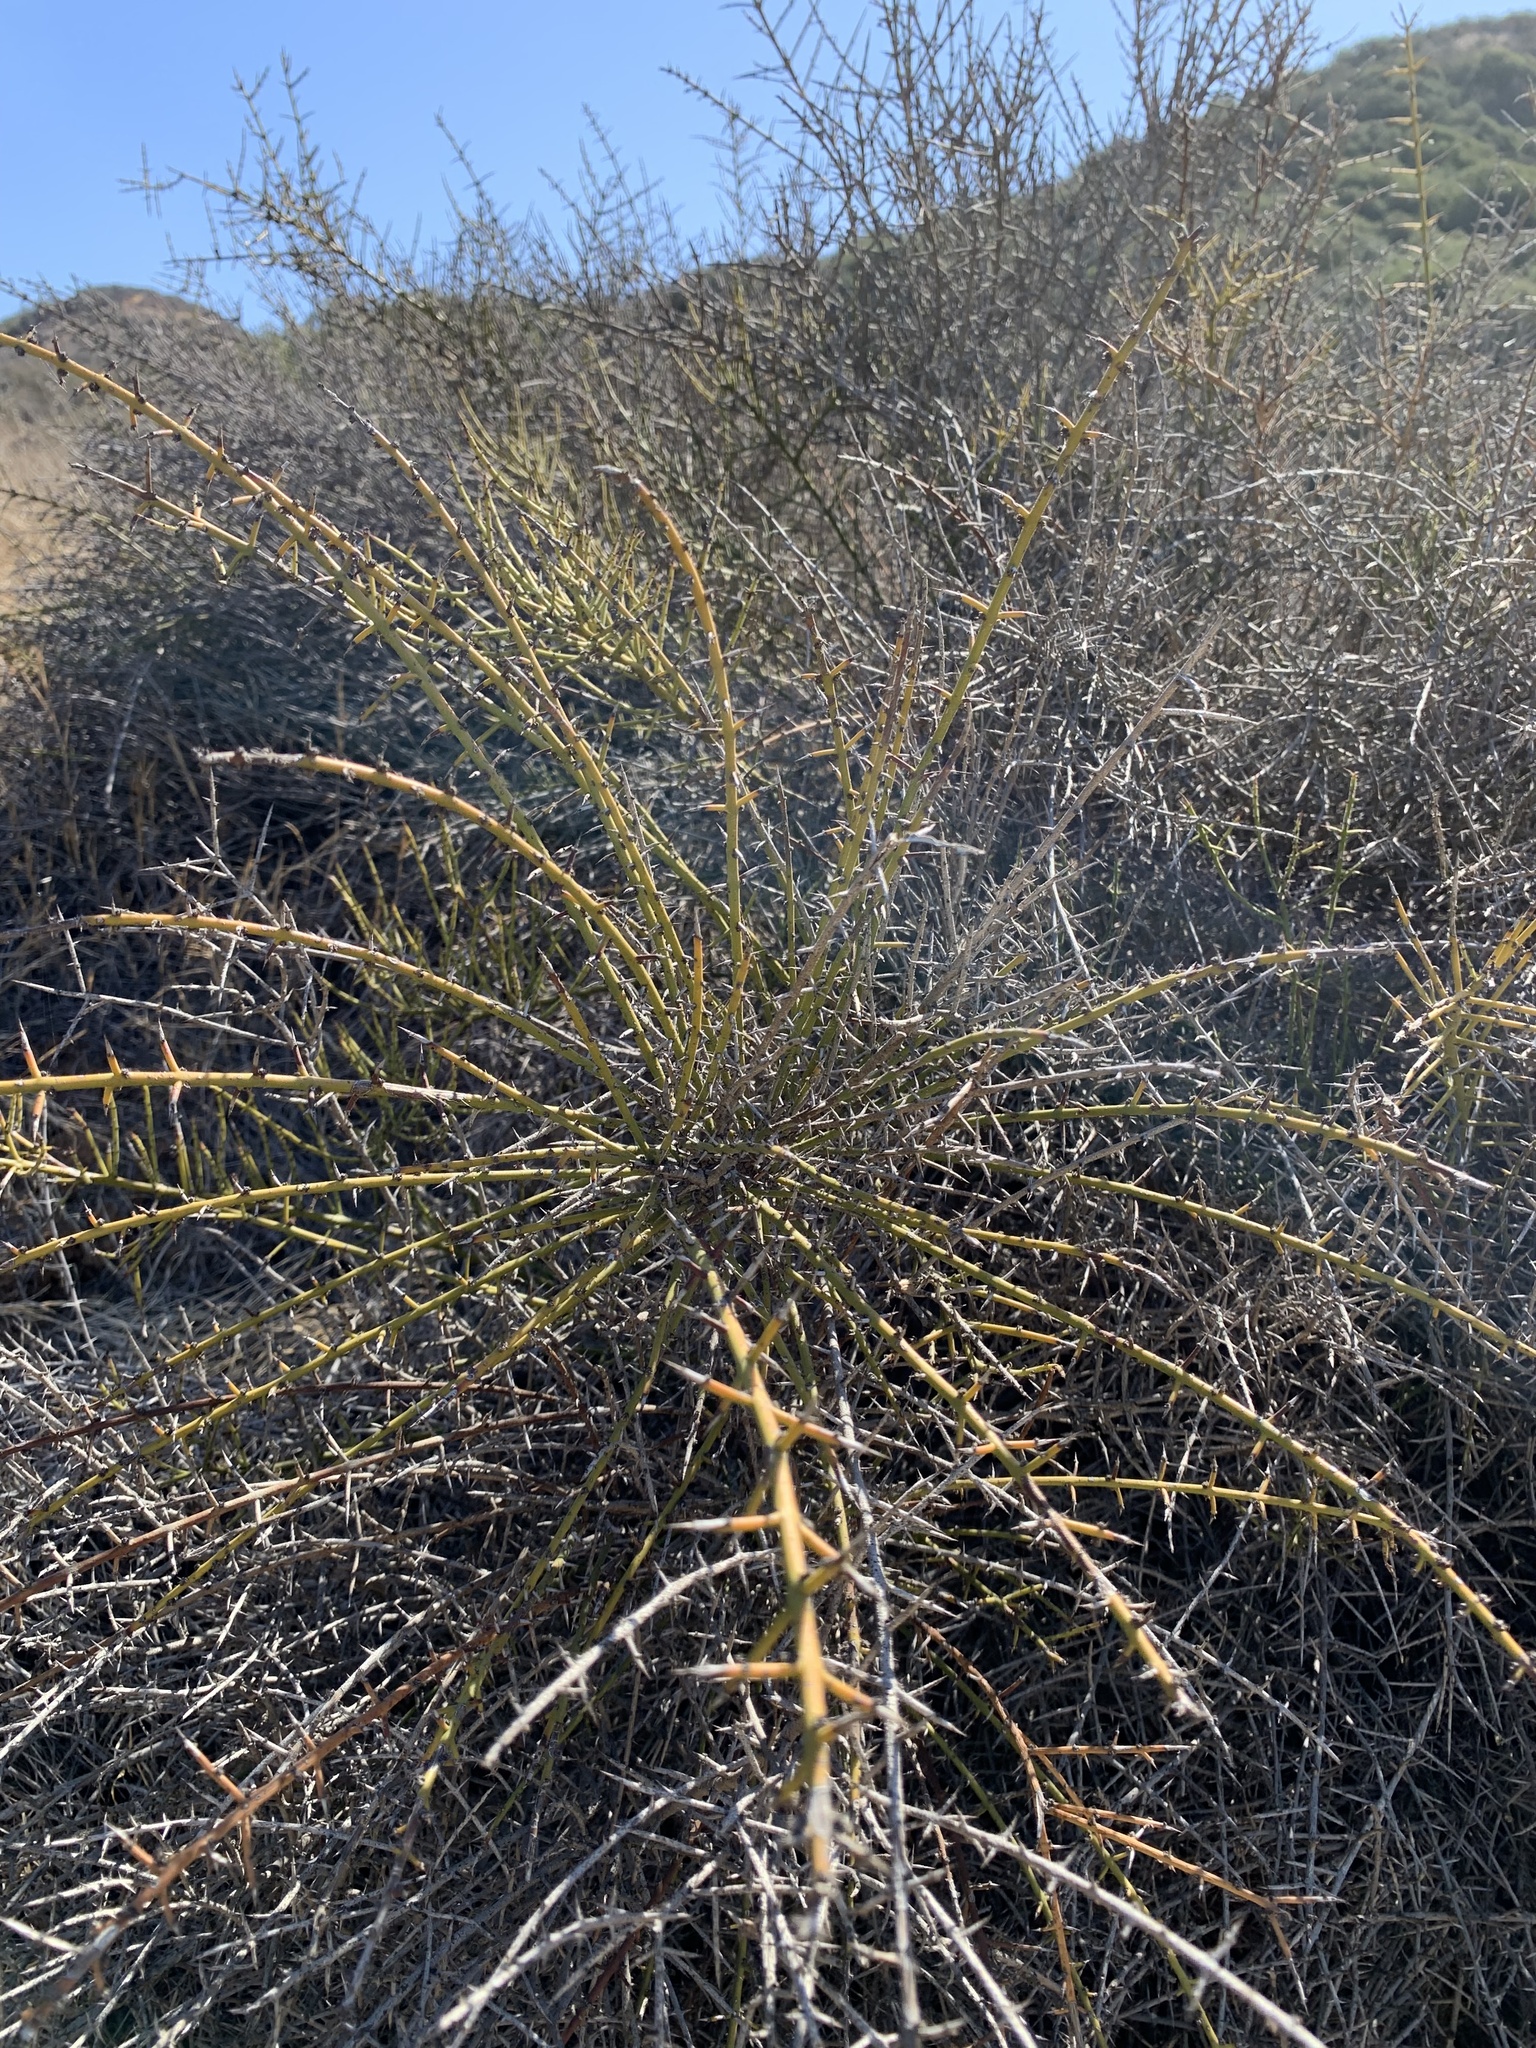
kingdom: Plantae
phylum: Tracheophyta
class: Magnoliopsida
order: Rosales
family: Rhamnaceae
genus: Adolphia
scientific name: Adolphia californica
